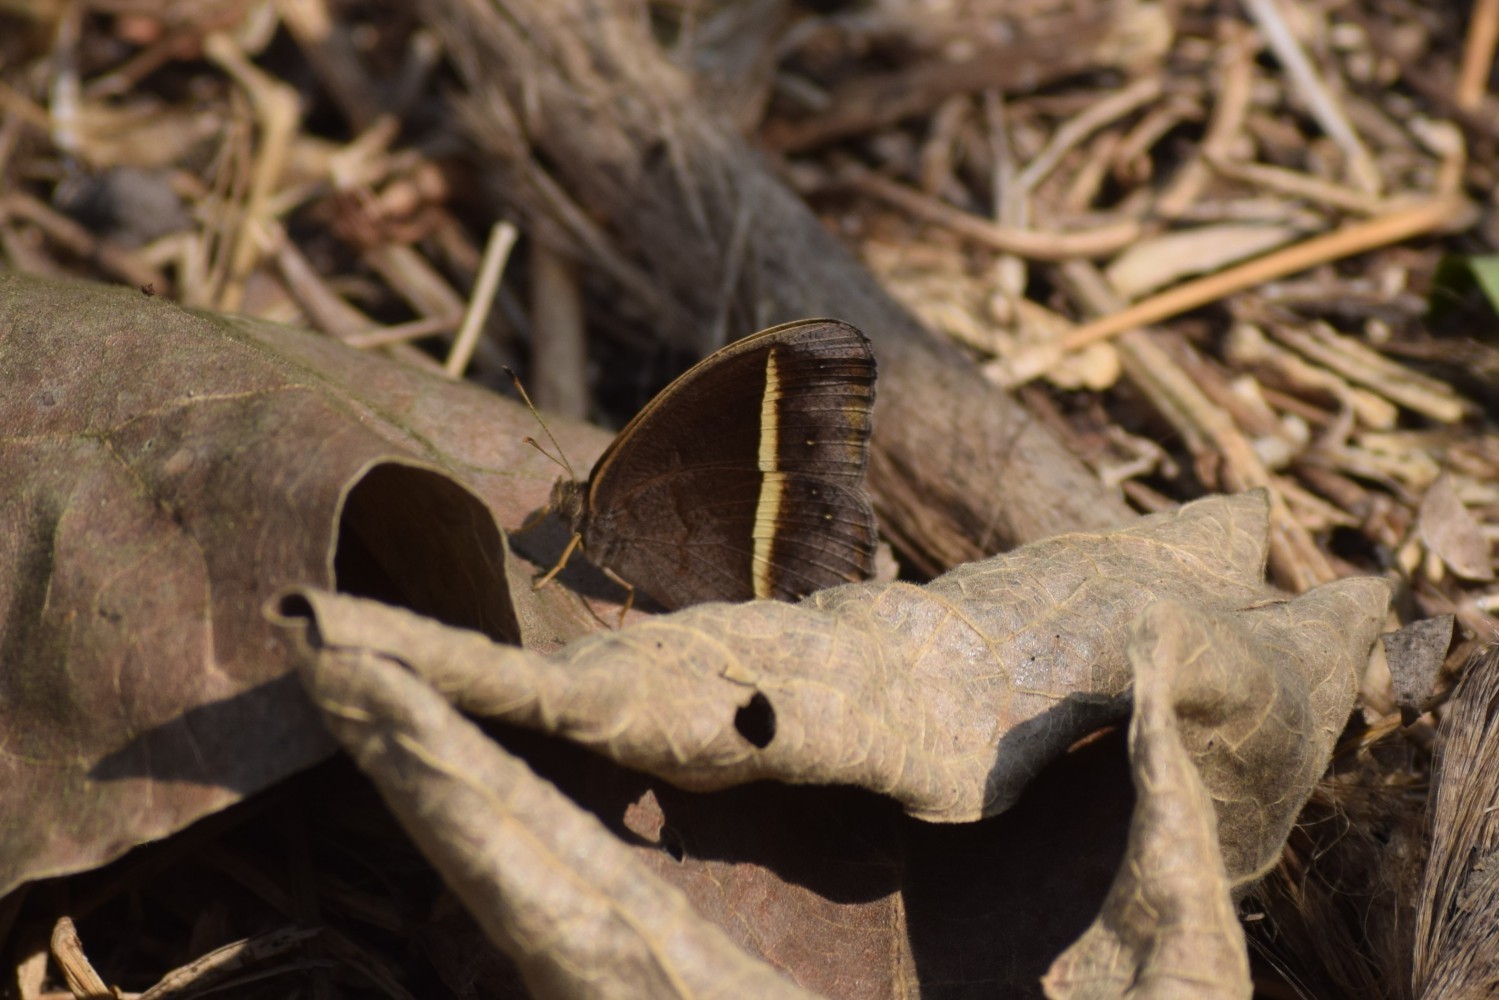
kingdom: Animalia
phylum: Arthropoda
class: Insecta
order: Lepidoptera
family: Nymphalidae
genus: Mycalesis
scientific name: Mycalesis Telinga malsara
